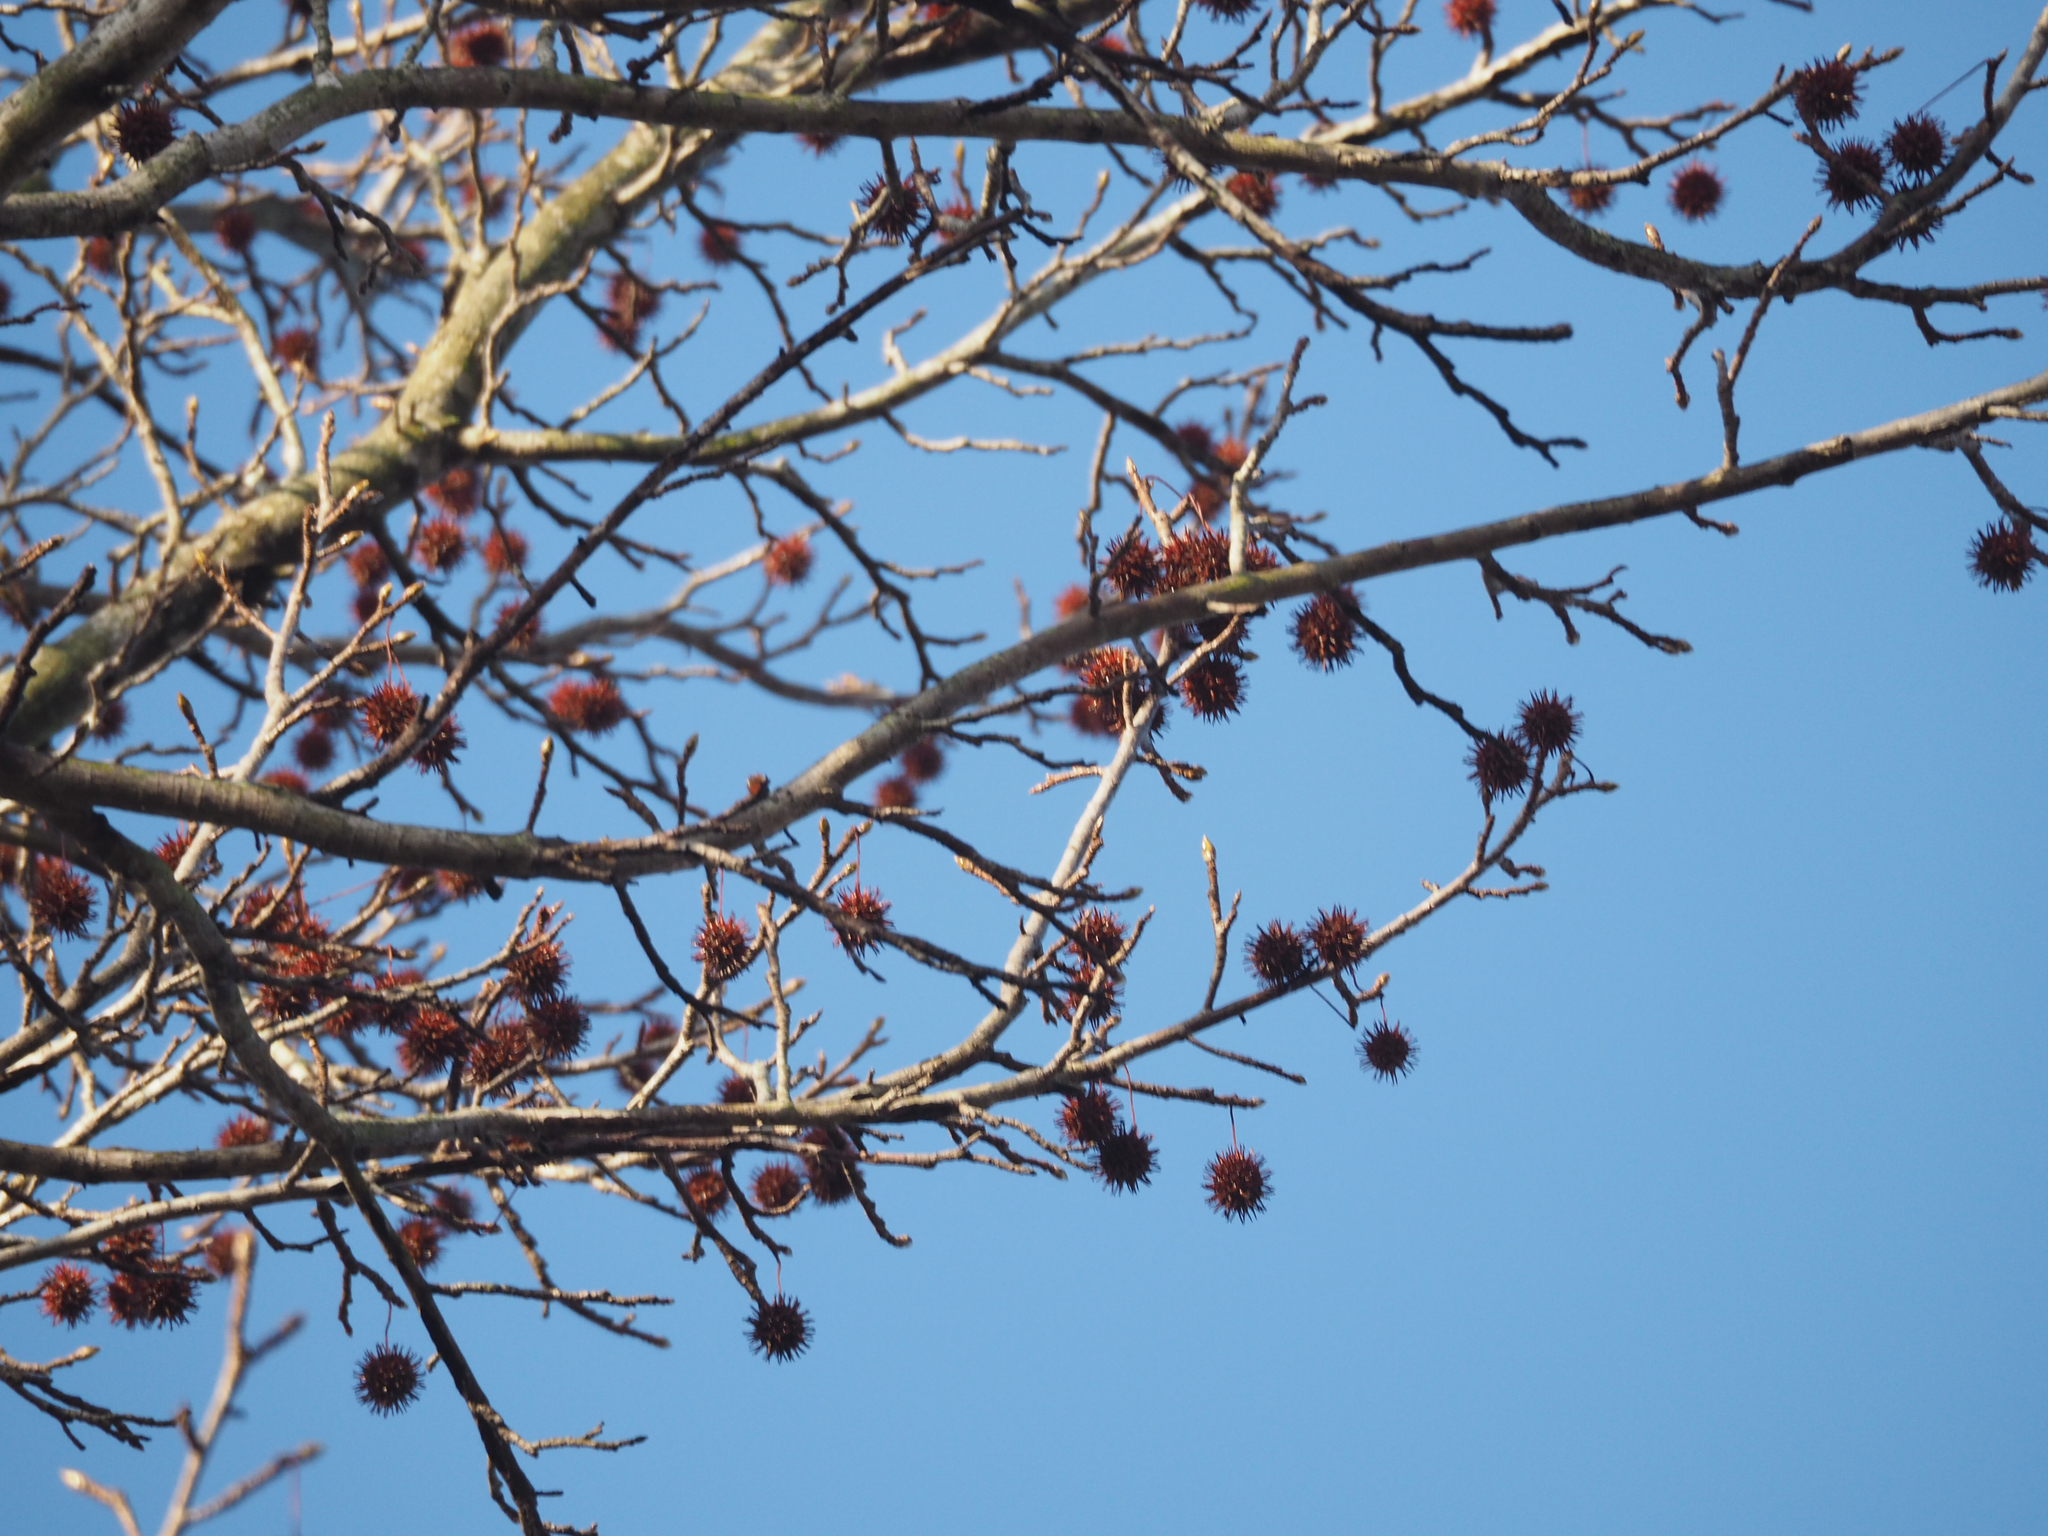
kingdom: Plantae
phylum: Tracheophyta
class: Magnoliopsida
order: Saxifragales
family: Altingiaceae
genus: Liquidambar
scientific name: Liquidambar styraciflua
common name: Sweet gum
